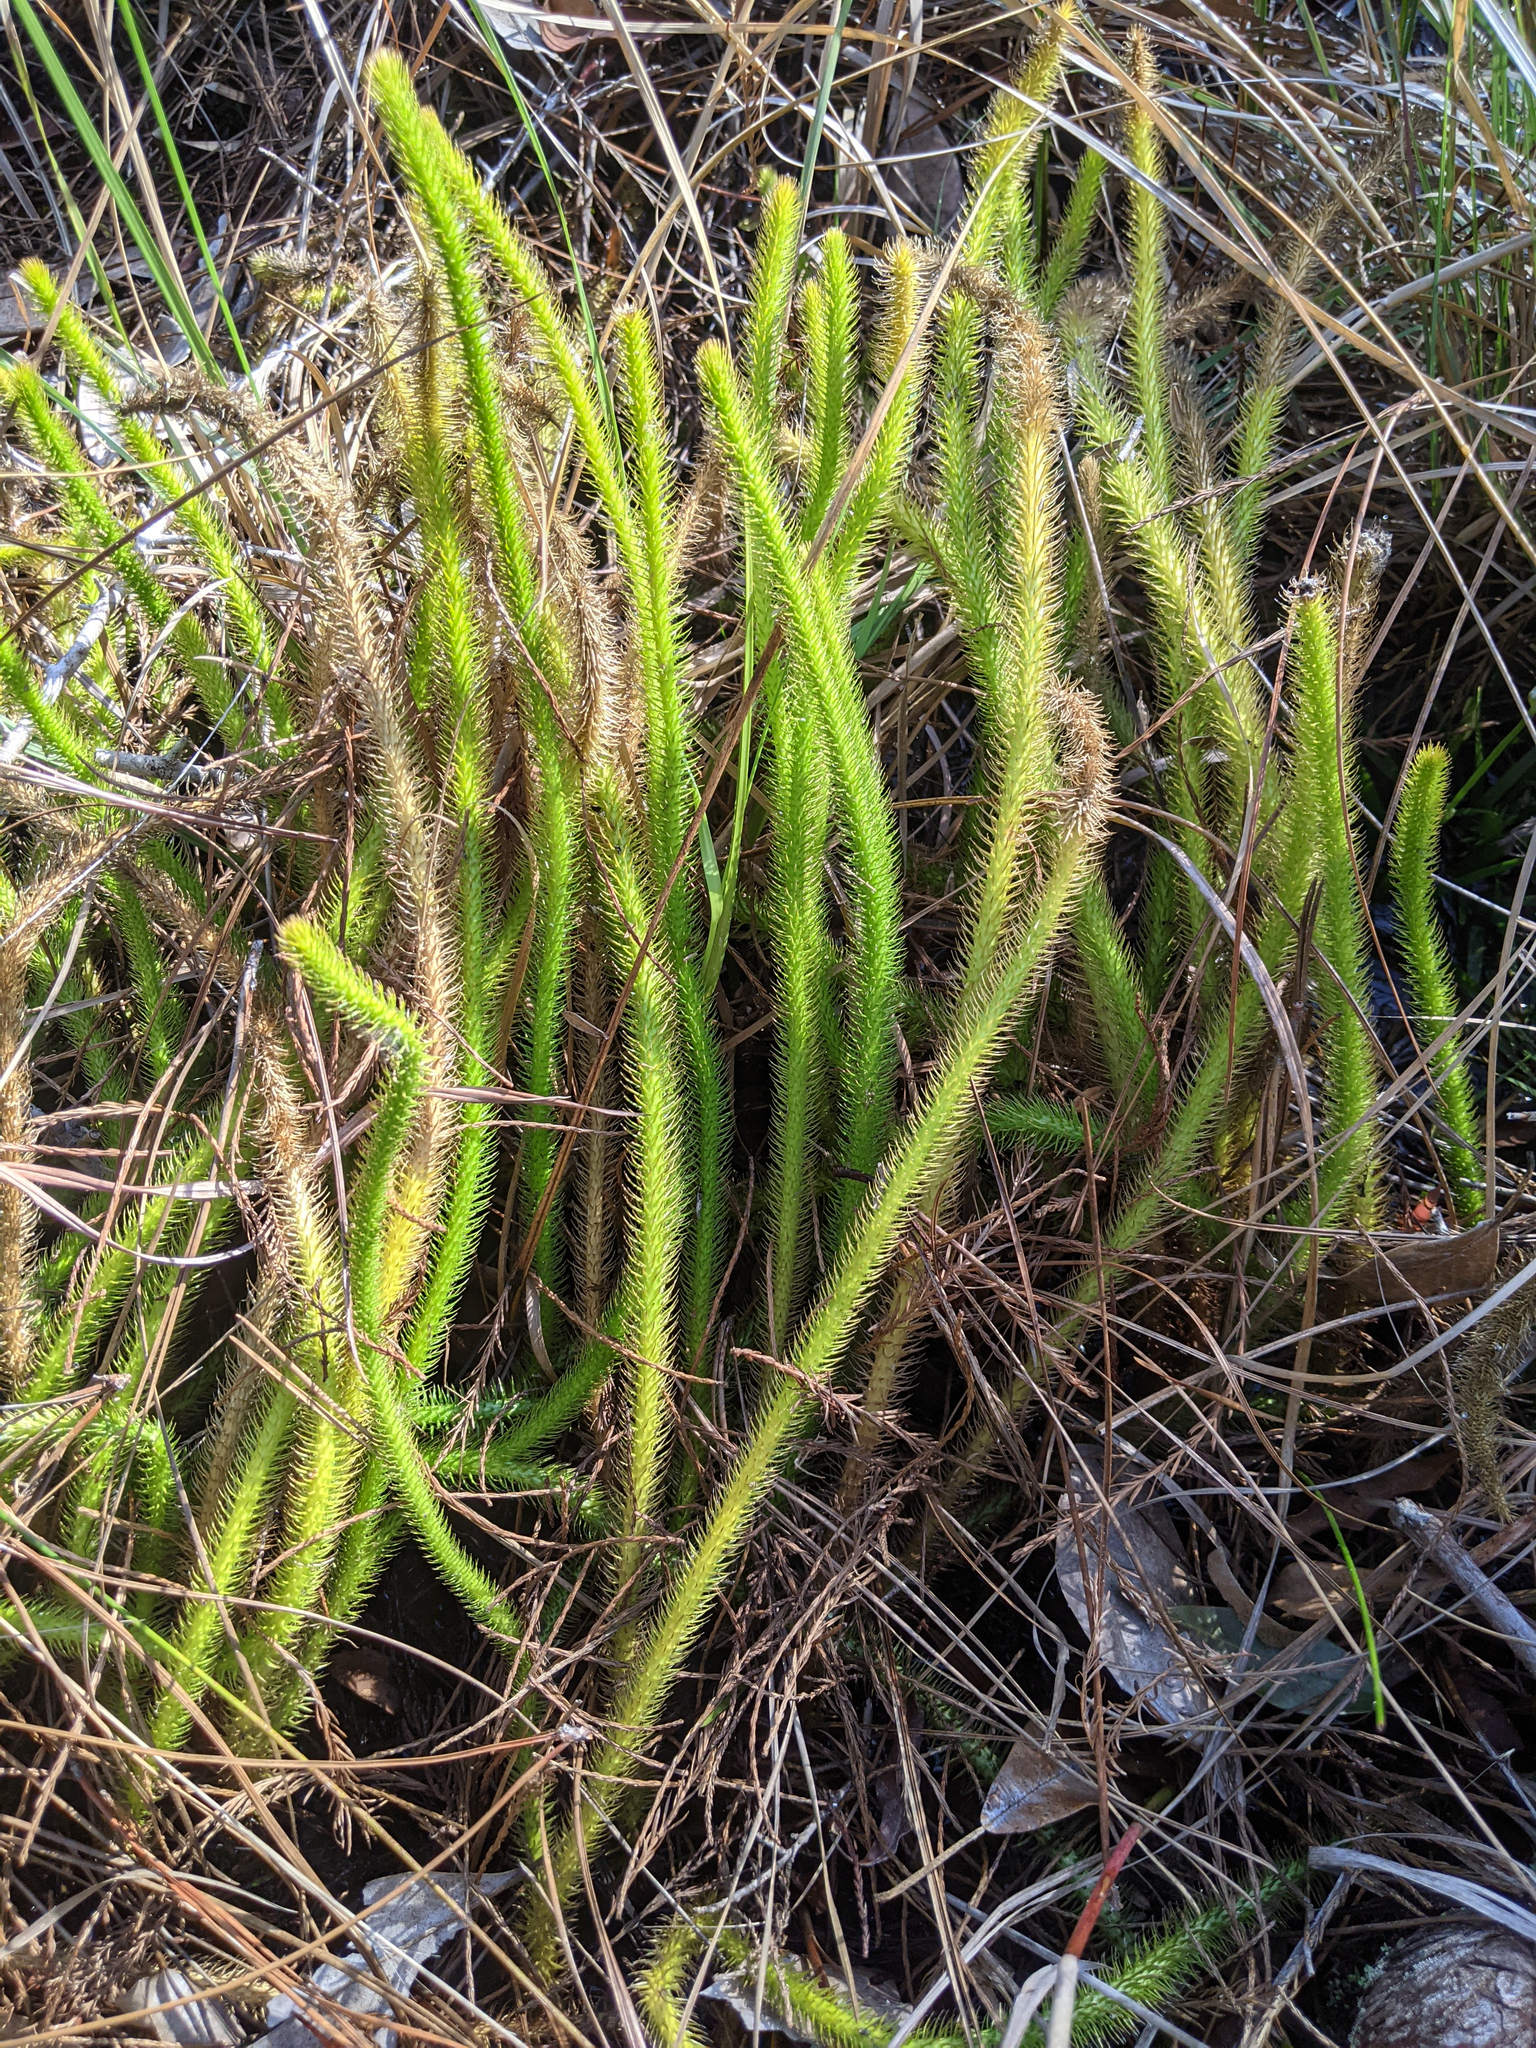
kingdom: Plantae
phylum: Tracheophyta
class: Lycopodiopsida
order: Lycopodiales
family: Lycopodiaceae
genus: Lycopodiella
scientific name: Lycopodiella alopecuroides
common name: Foxtail clubmoss
